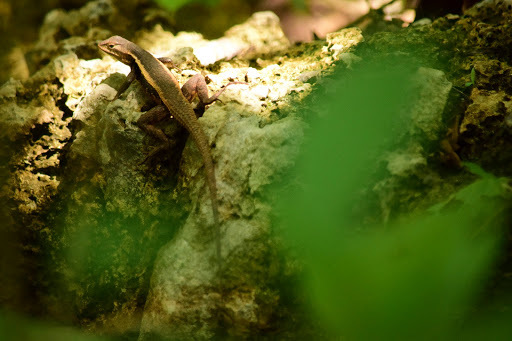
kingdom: Animalia
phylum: Chordata
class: Squamata
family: Phrynosomatidae
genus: Sceloporus
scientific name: Sceloporus chrysostictus
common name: Yellow-spotted spiny lizard
